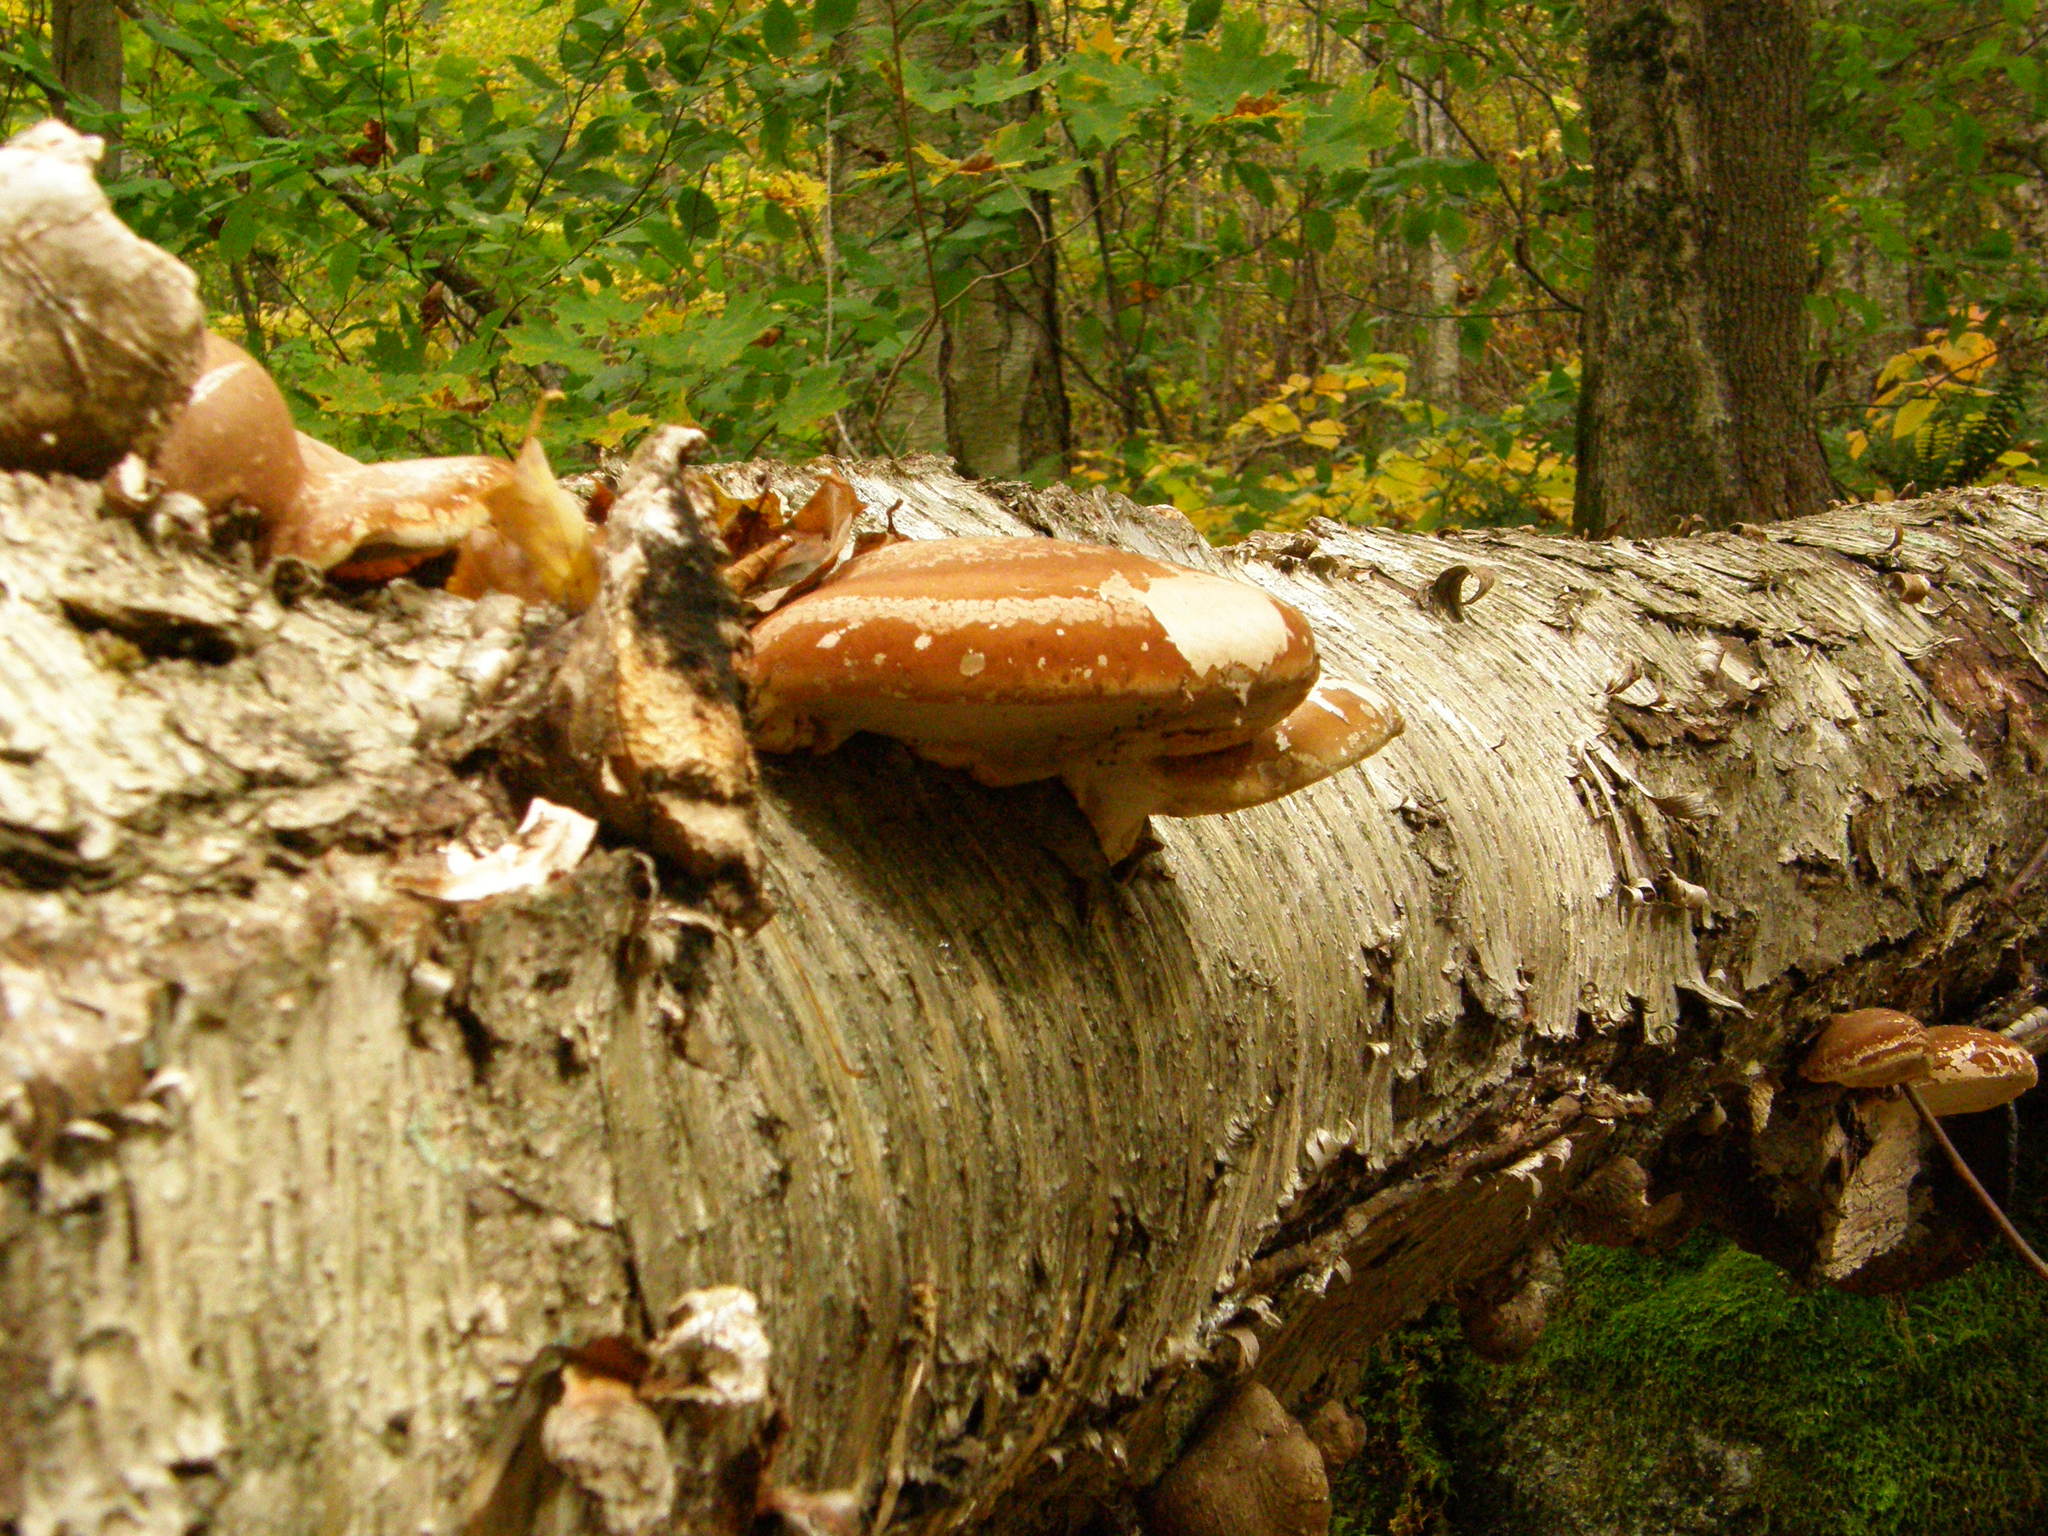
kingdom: Fungi
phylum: Basidiomycota
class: Agaricomycetes
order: Polyporales
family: Fomitopsidaceae
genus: Fomitopsis
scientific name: Fomitopsis betulina
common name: Birch polypore
